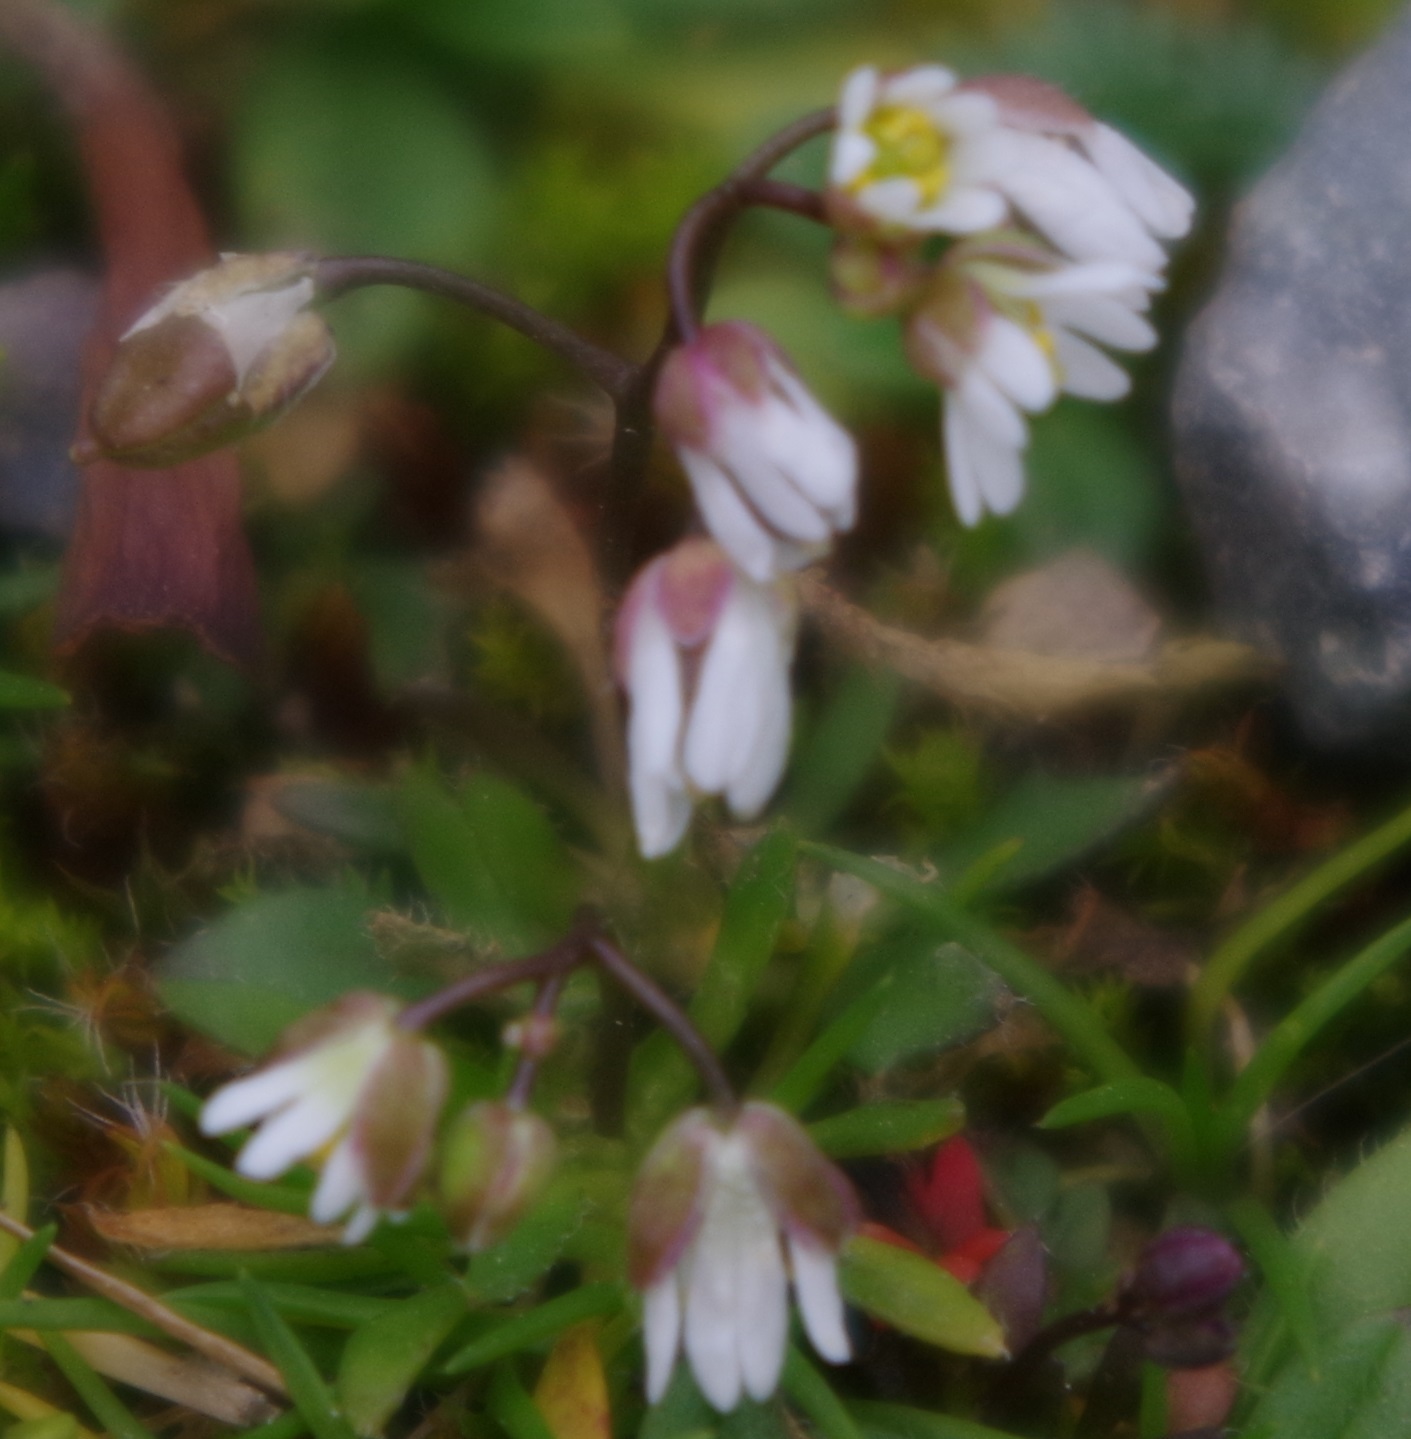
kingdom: Plantae
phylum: Tracheophyta
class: Magnoliopsida
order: Brassicales
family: Brassicaceae
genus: Draba
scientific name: Draba verna
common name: Spring draba
